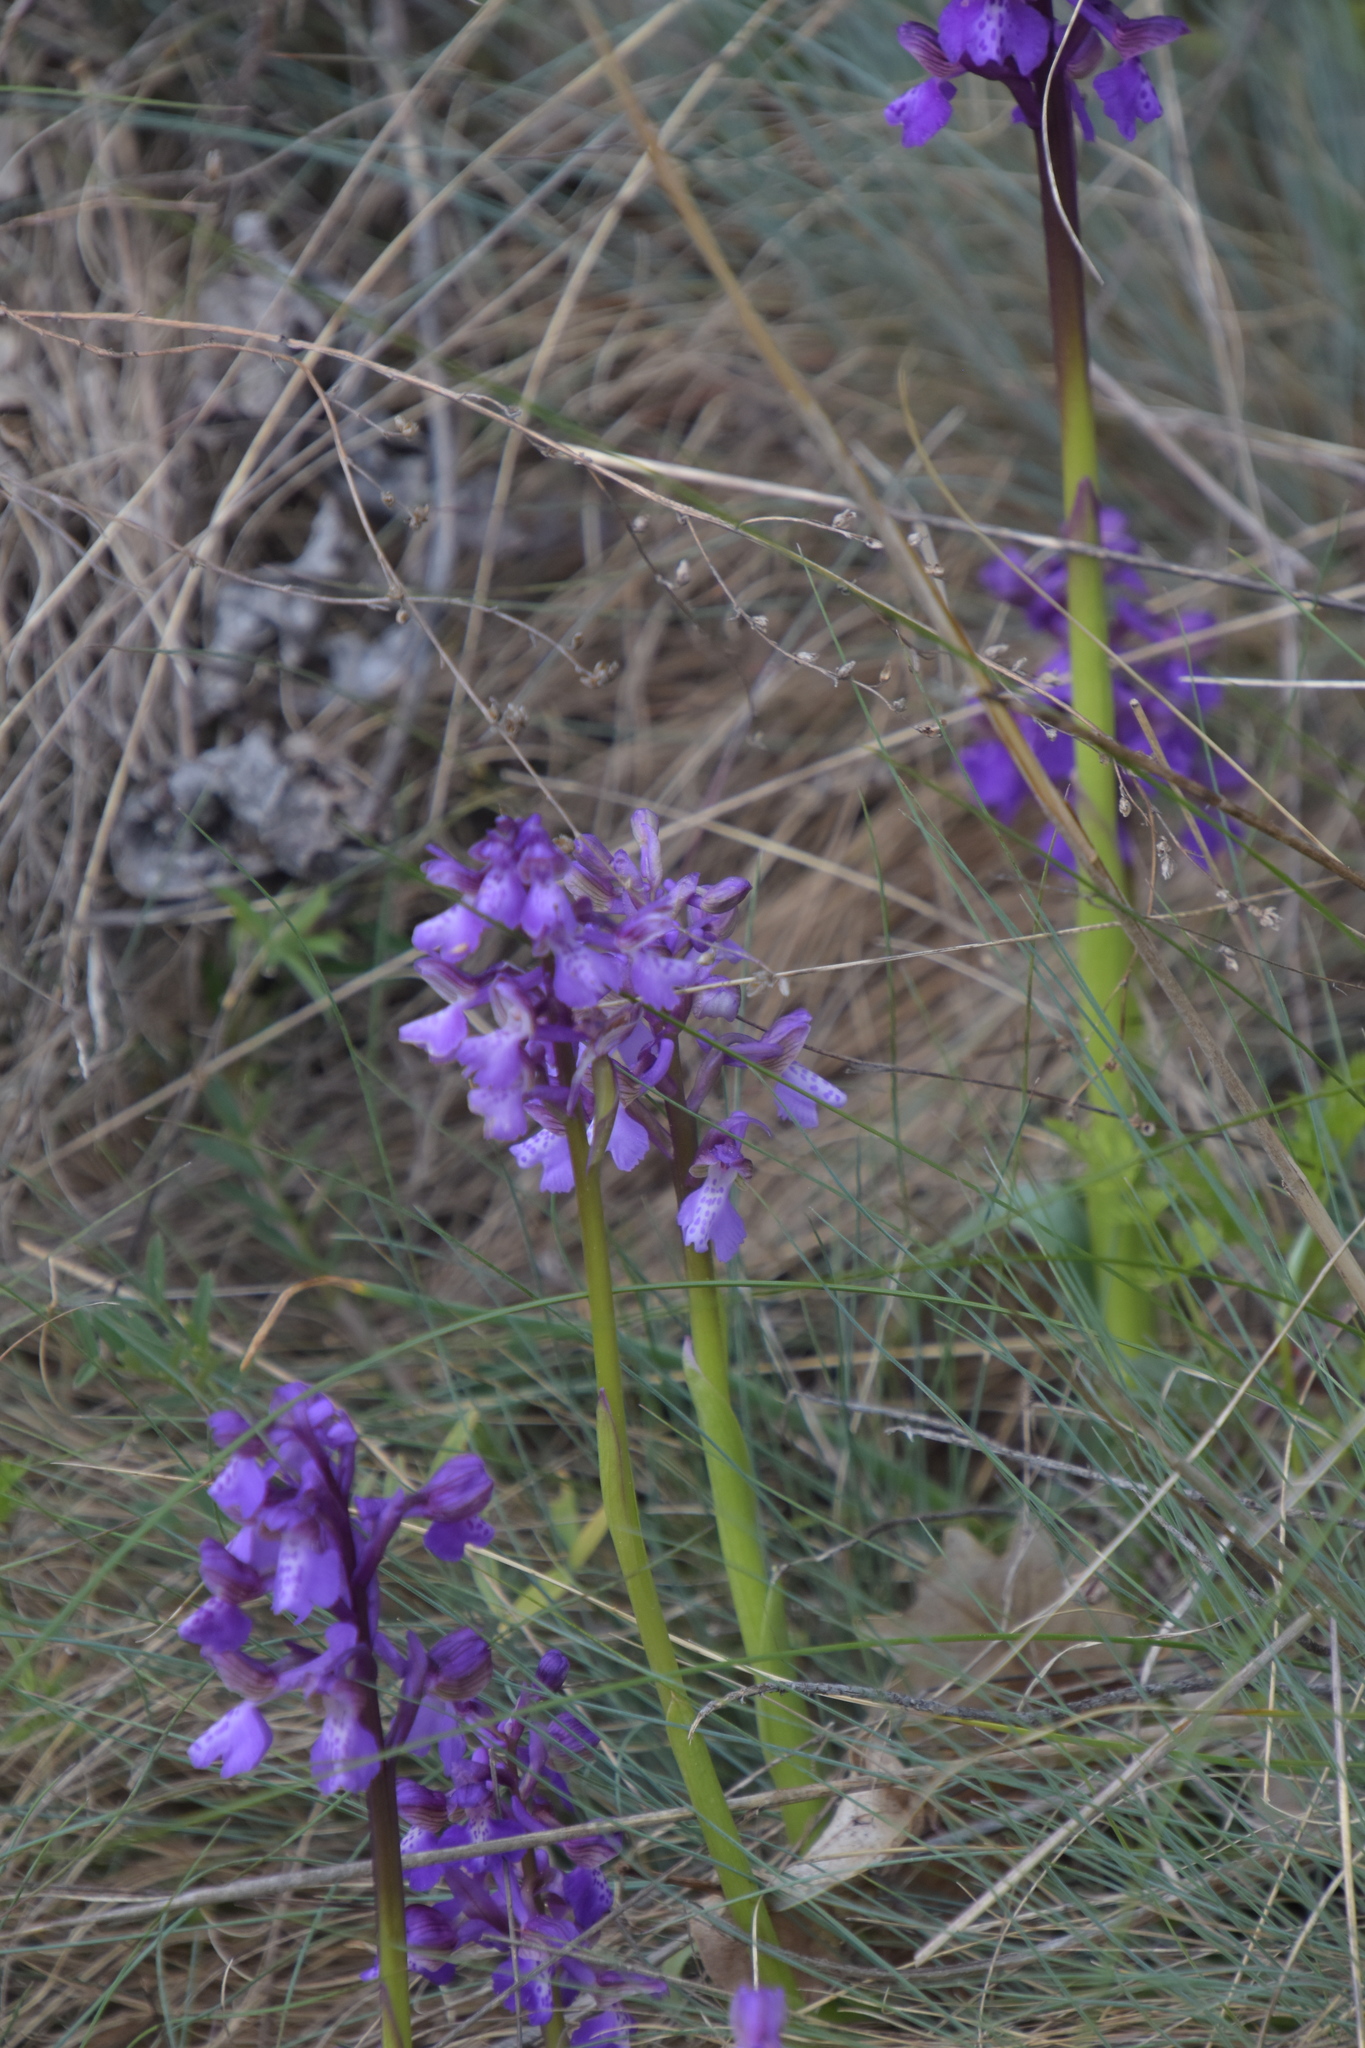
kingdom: Plantae
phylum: Tracheophyta
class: Liliopsida
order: Asparagales
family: Orchidaceae
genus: Anacamptis
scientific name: Anacamptis morio
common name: Green-winged orchid
